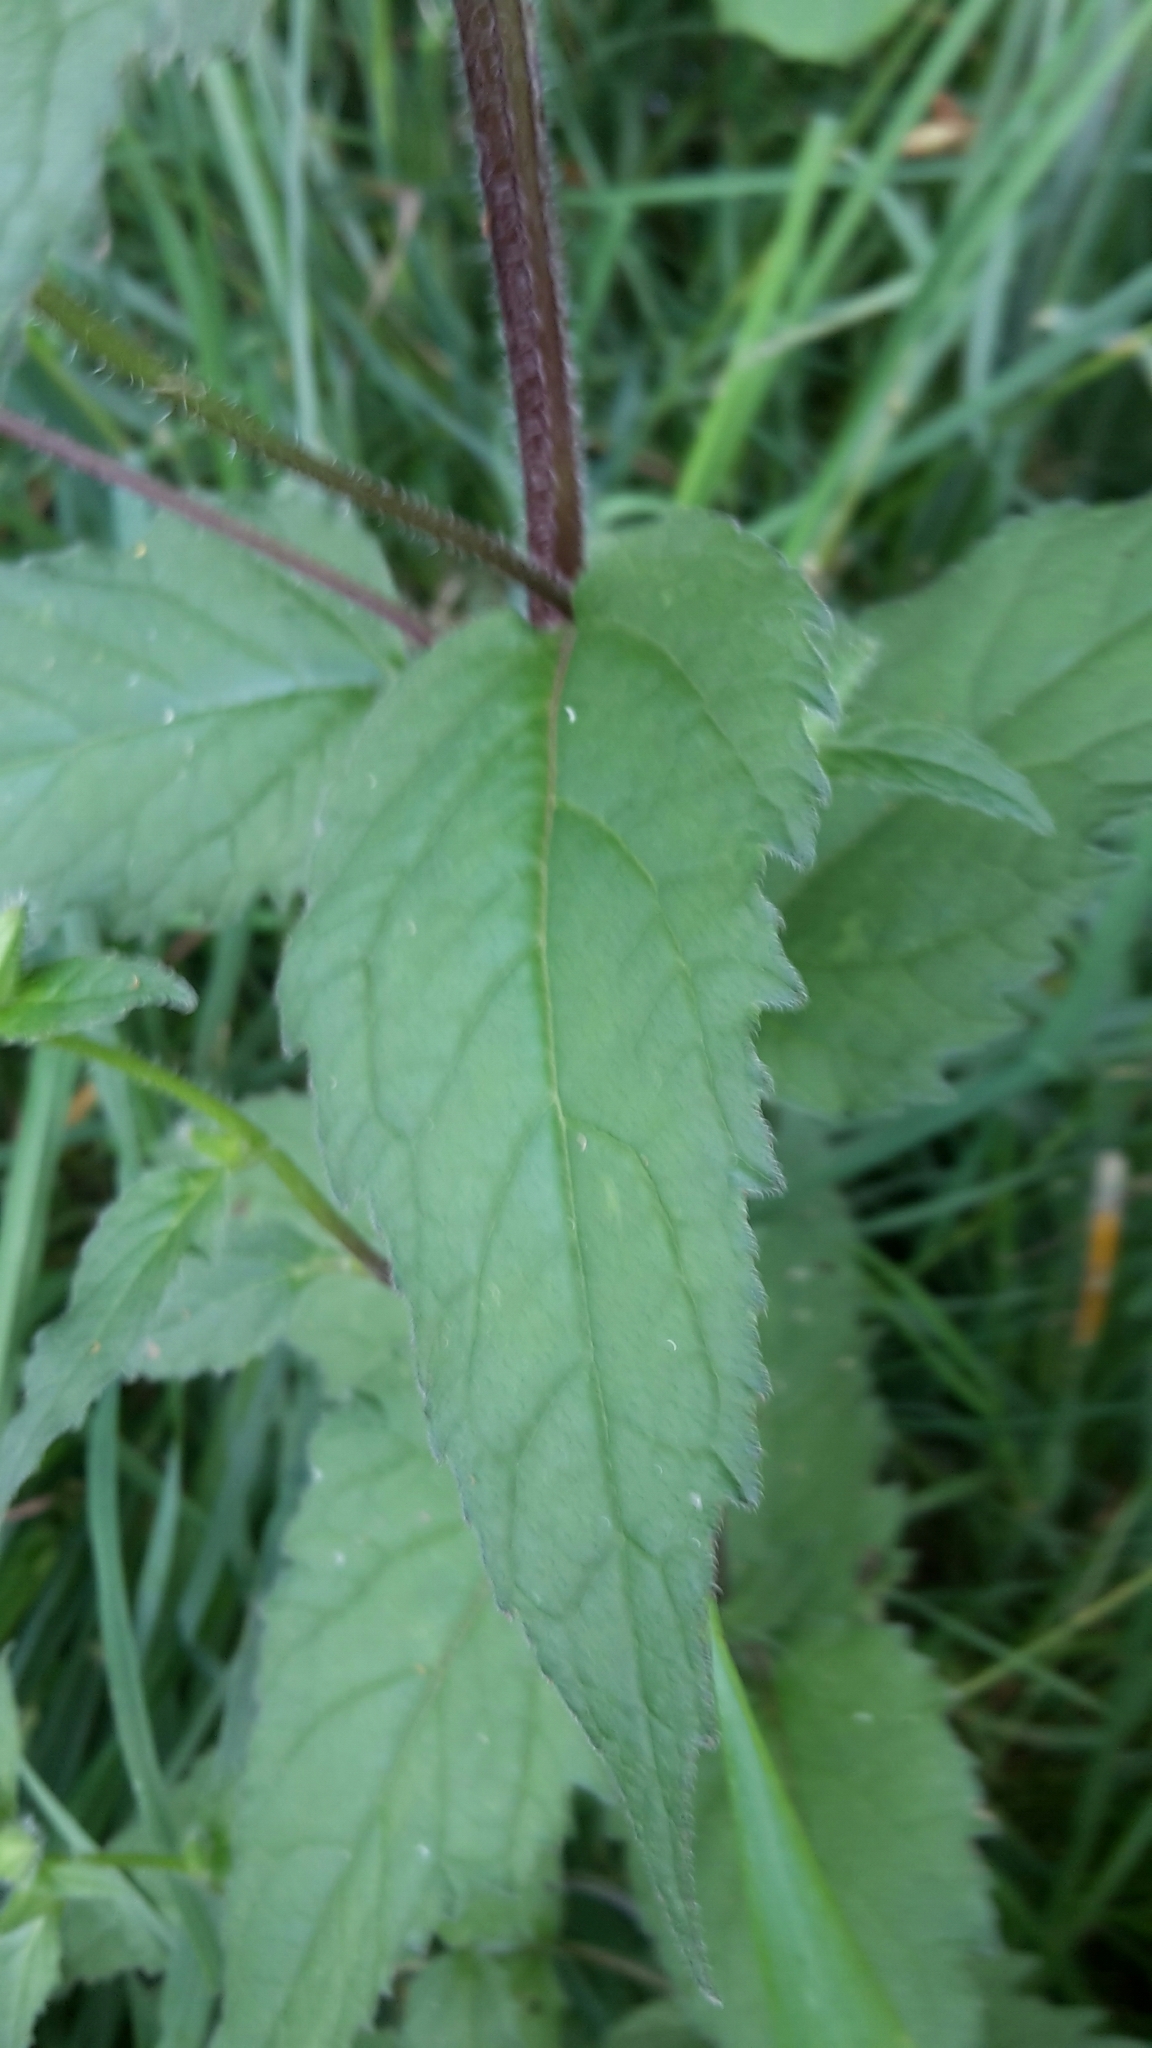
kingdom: Plantae
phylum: Tracheophyta
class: Magnoliopsida
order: Asterales
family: Campanulaceae
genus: Campanula
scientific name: Campanula trachelium
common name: Nettle-leaved bellflower
